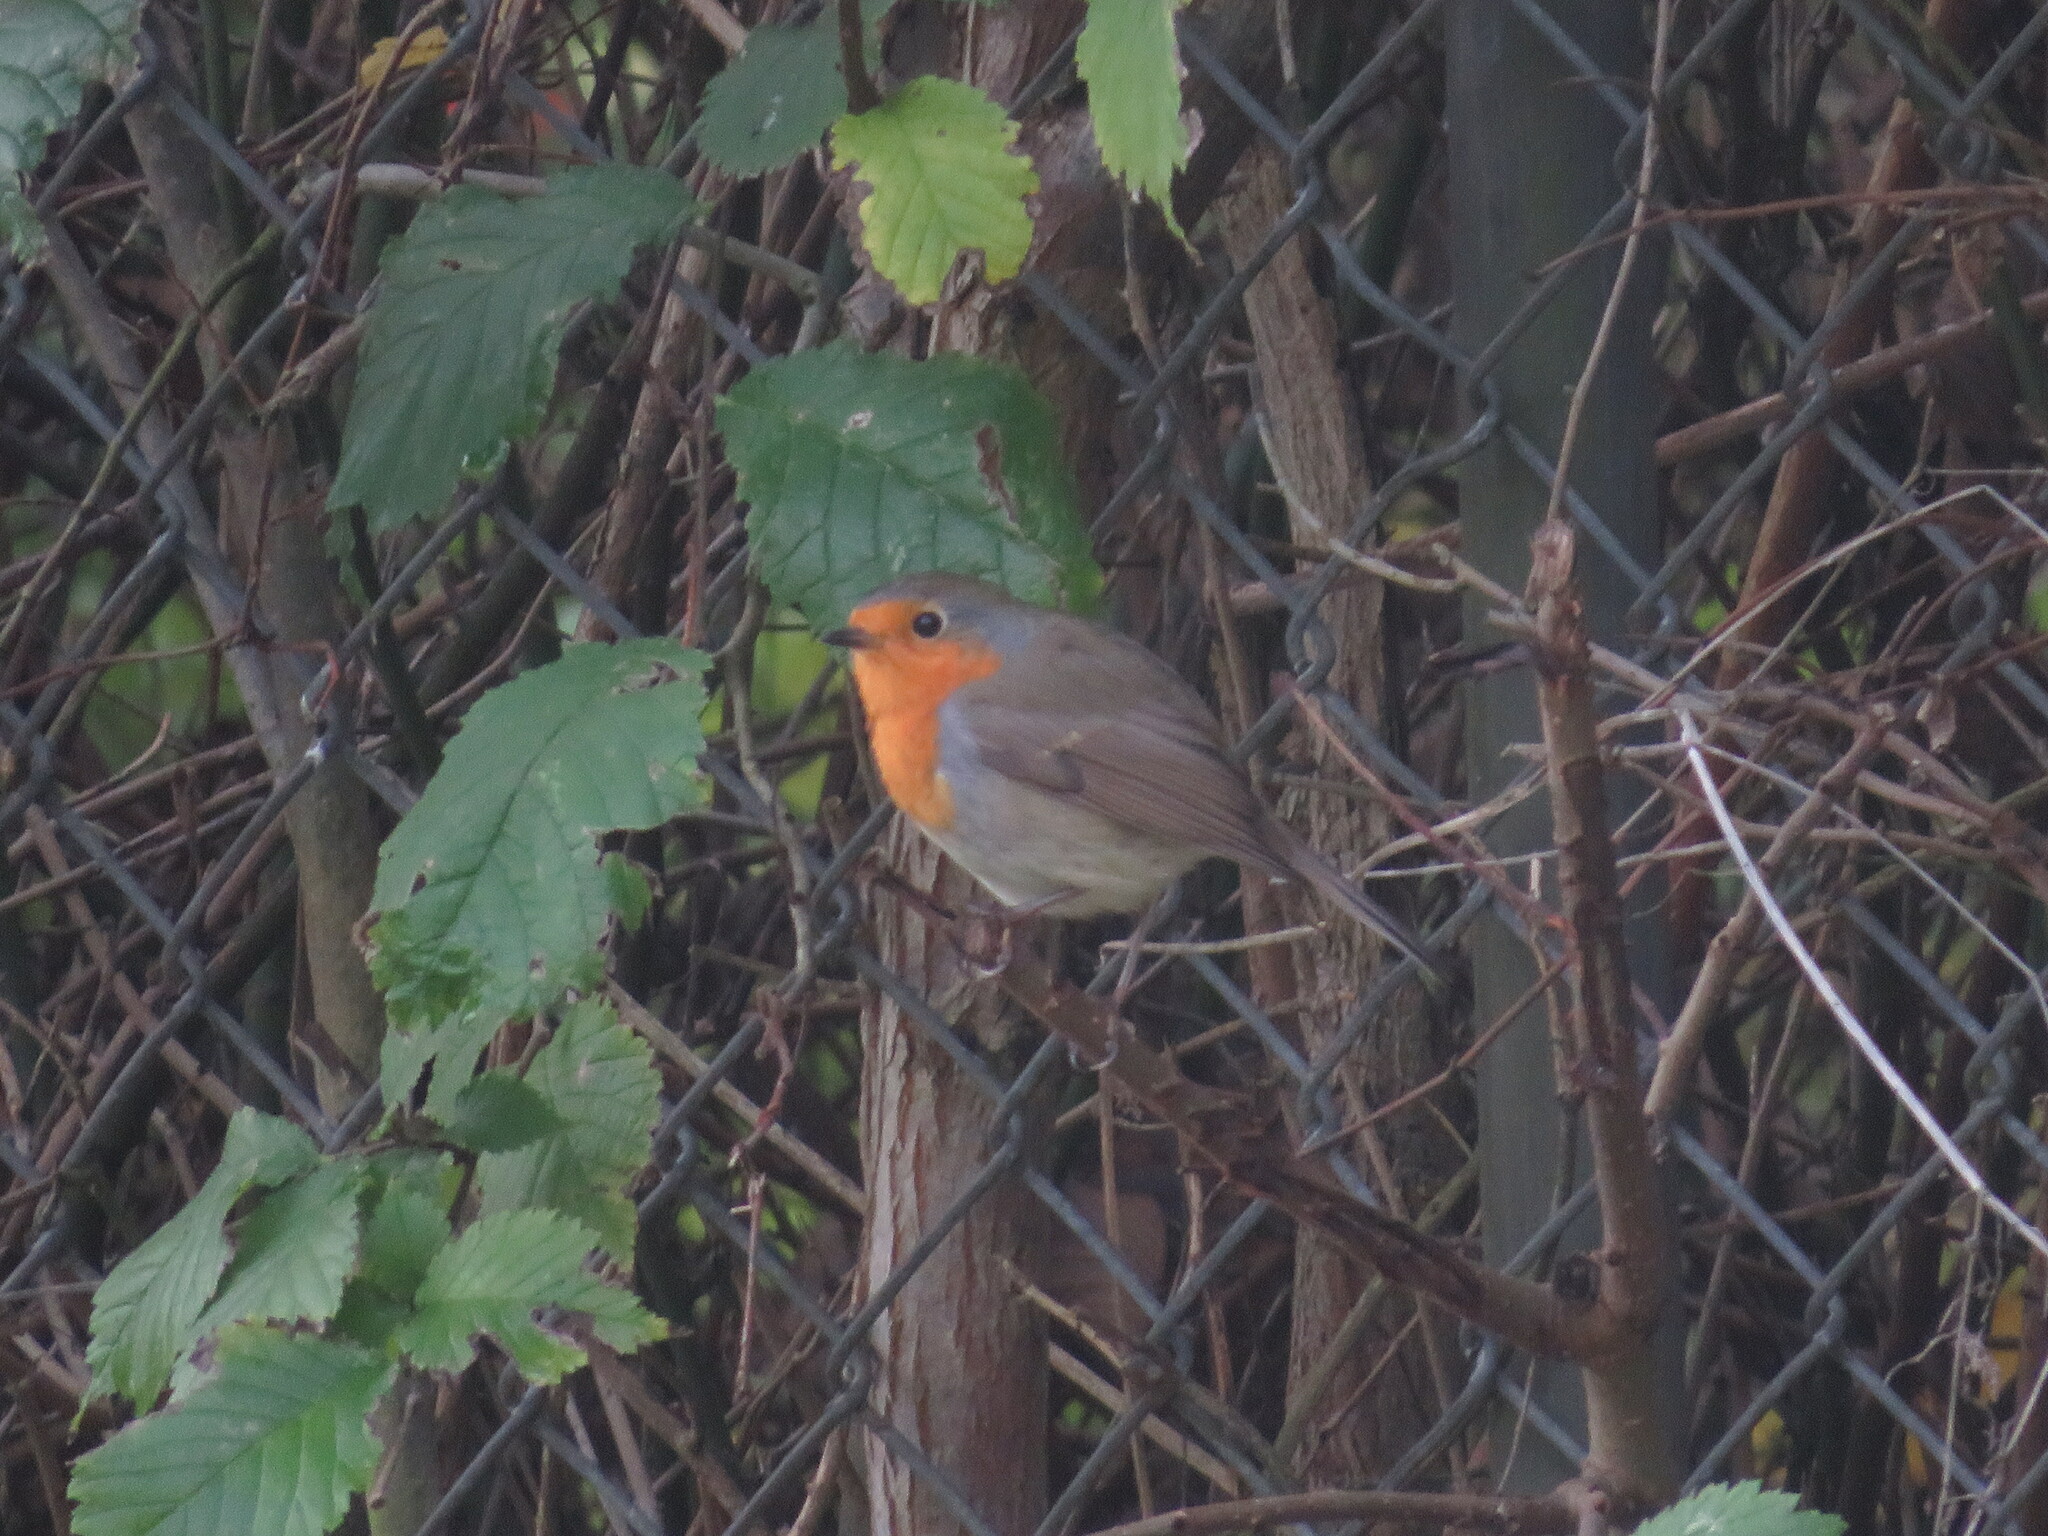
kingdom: Animalia
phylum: Chordata
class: Aves
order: Passeriformes
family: Muscicapidae
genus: Erithacus
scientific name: Erithacus rubecula
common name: European robin
